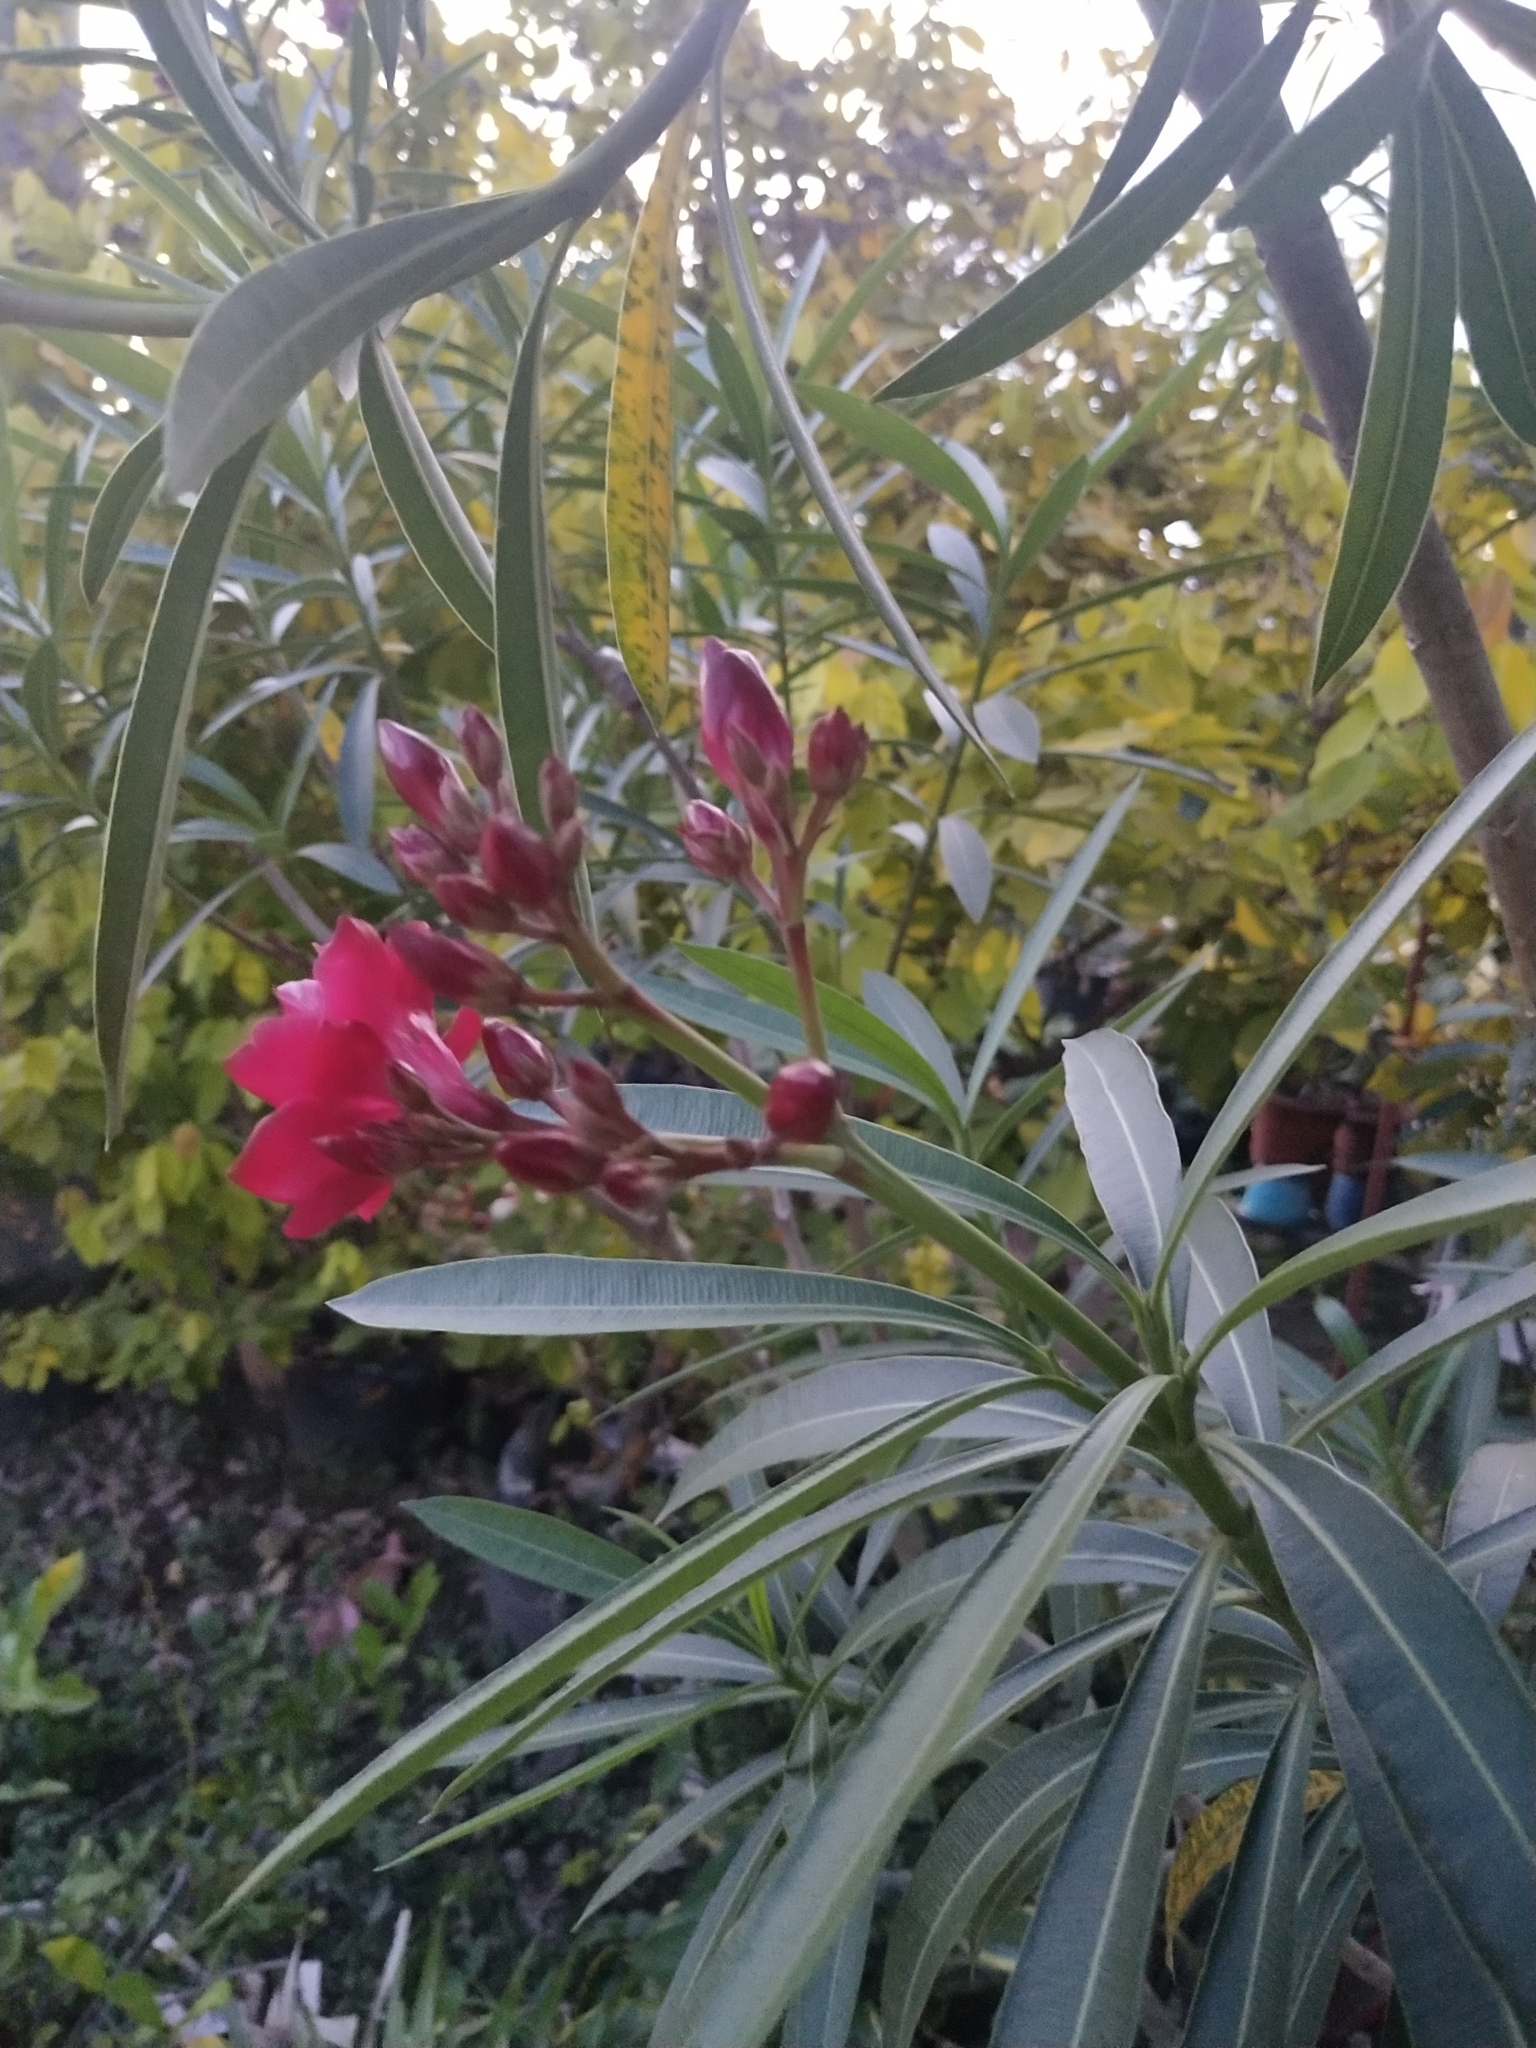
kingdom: Plantae
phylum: Tracheophyta
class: Magnoliopsida
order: Gentianales
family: Apocynaceae
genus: Nerium
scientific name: Nerium oleander
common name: Oleander
